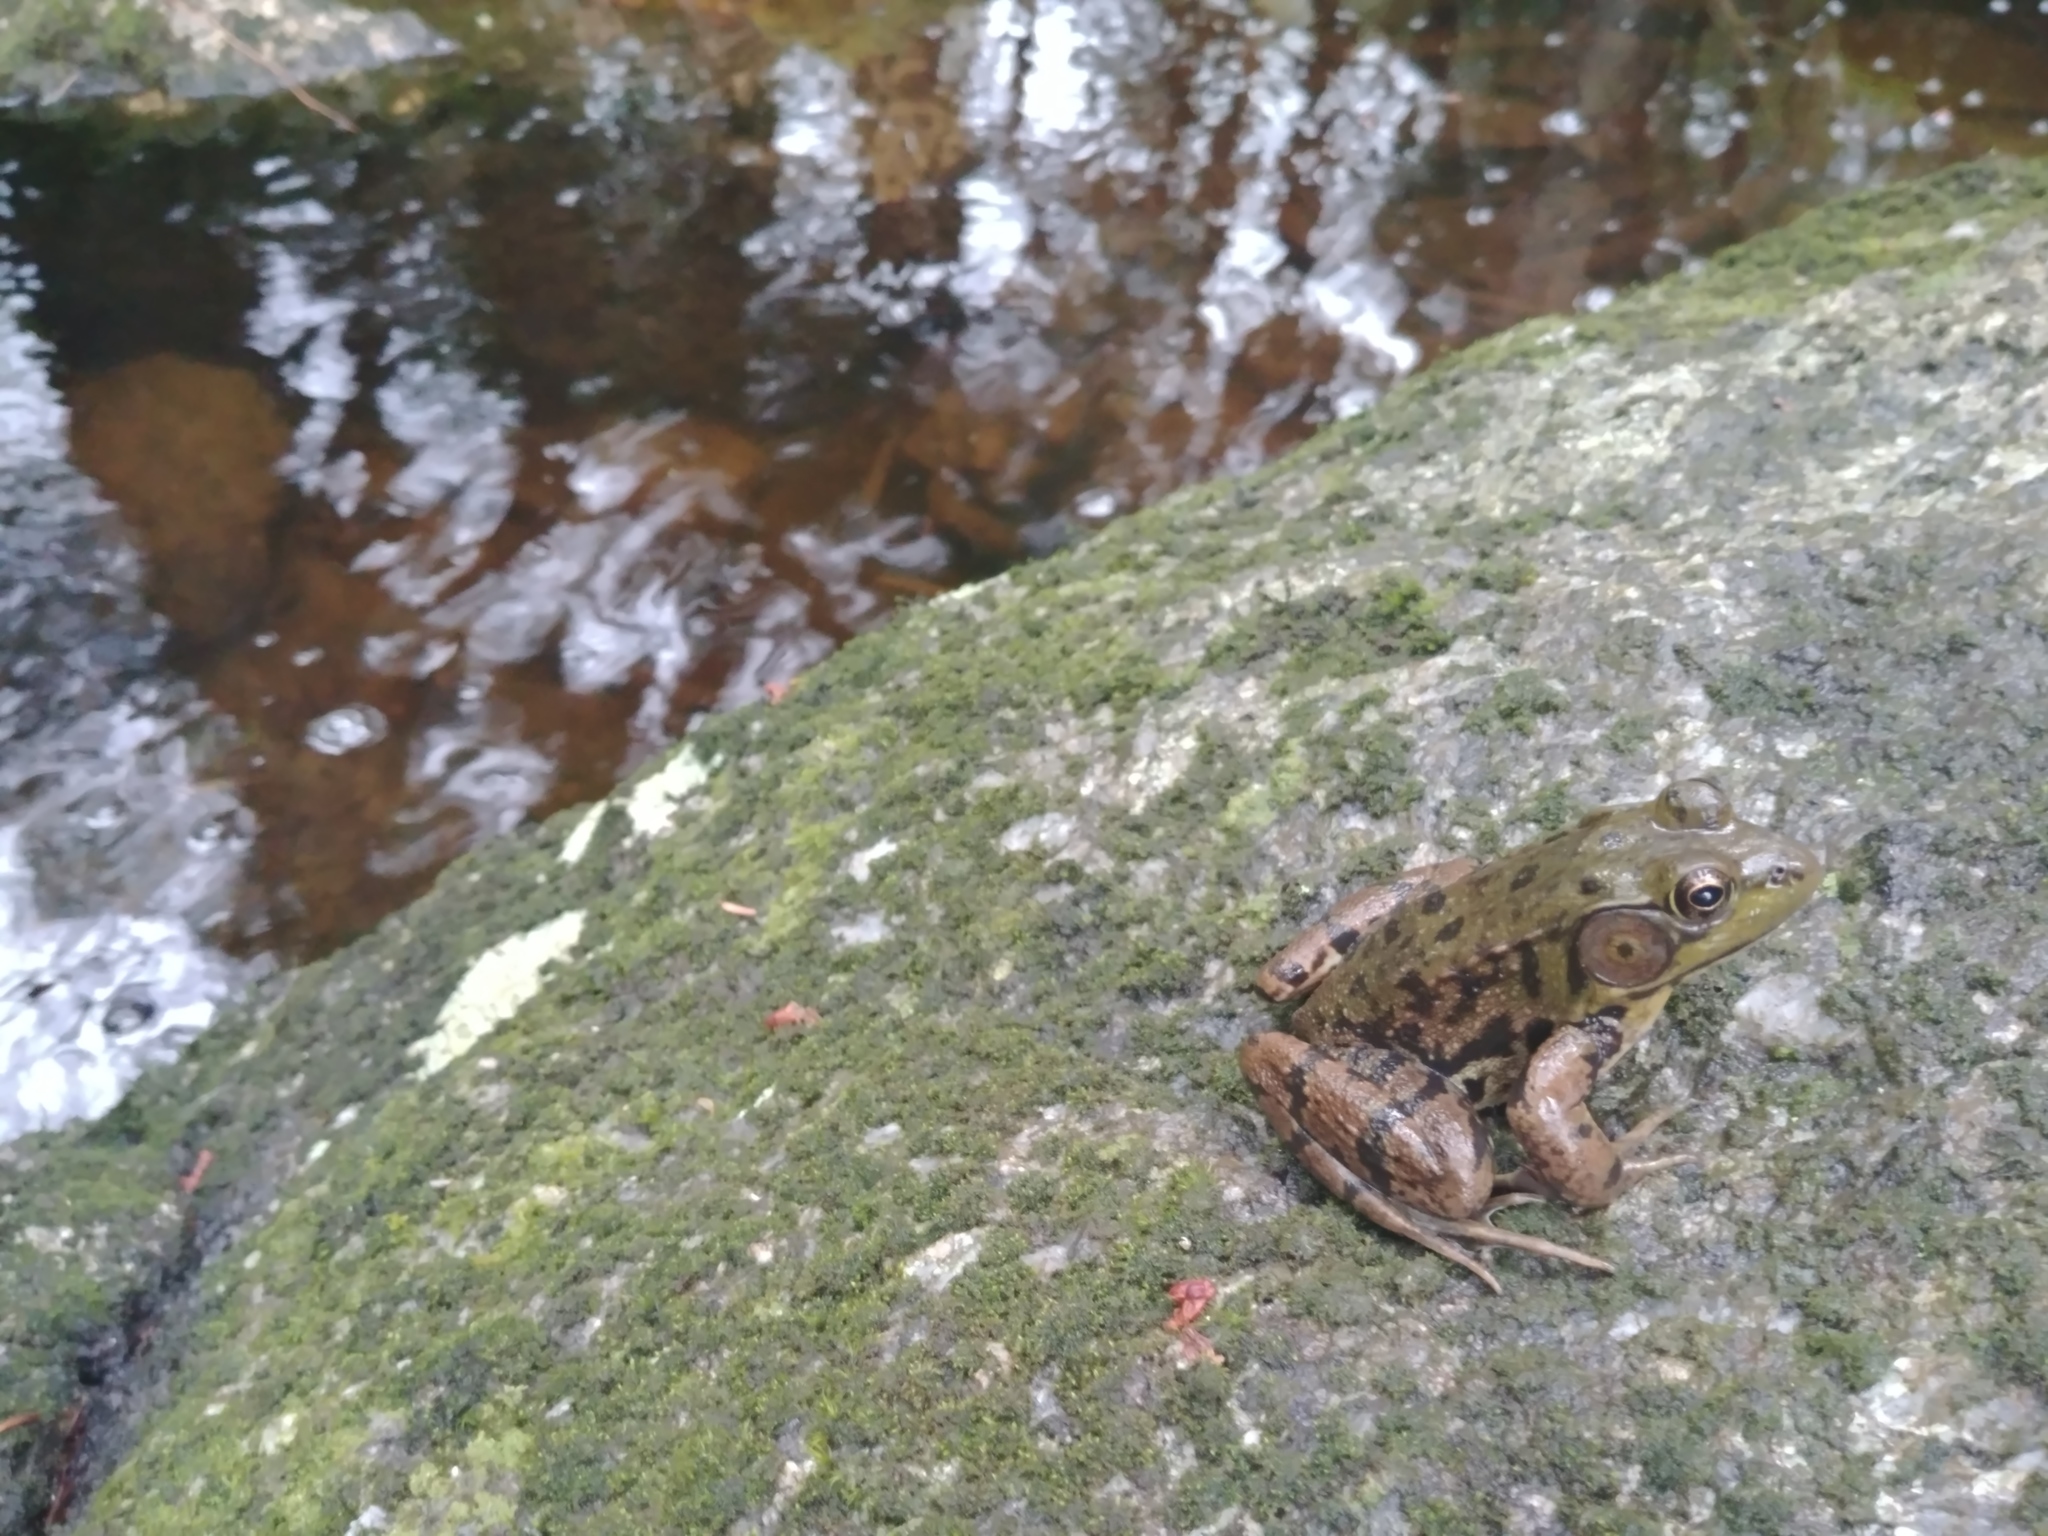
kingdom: Animalia
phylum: Chordata
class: Amphibia
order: Anura
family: Ranidae
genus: Lithobates
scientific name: Lithobates clamitans
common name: Green frog
